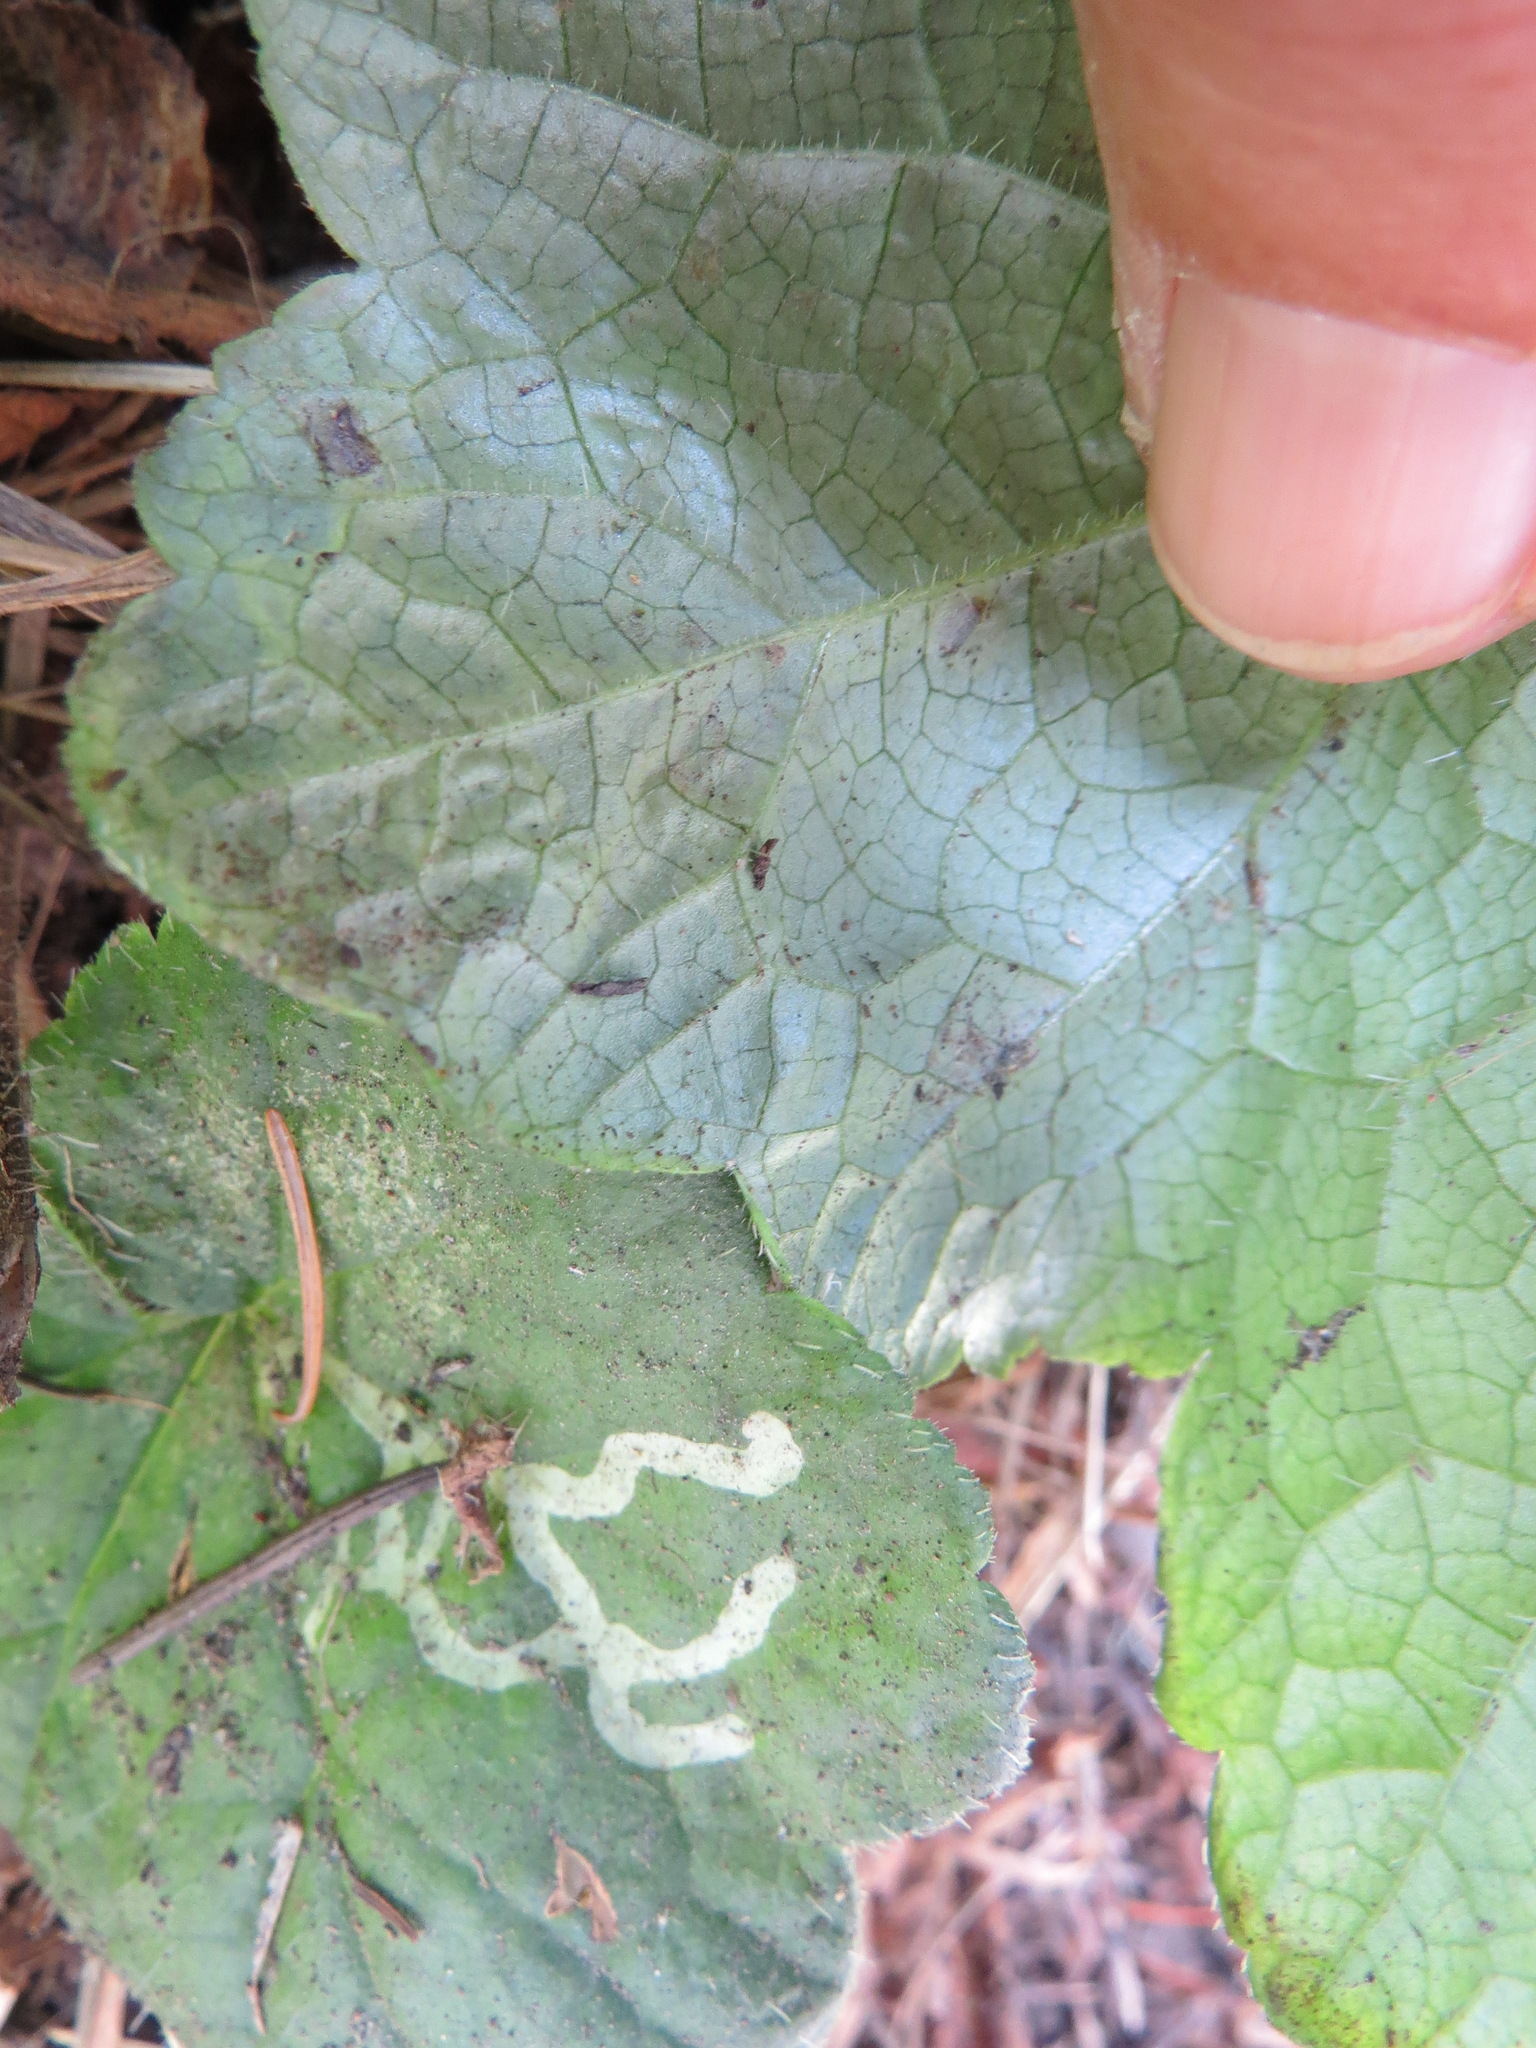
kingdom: Animalia
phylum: Arthropoda
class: Insecta
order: Diptera
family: Agromyzidae
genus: Phytomyza
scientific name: Phytomyza tiarellae
